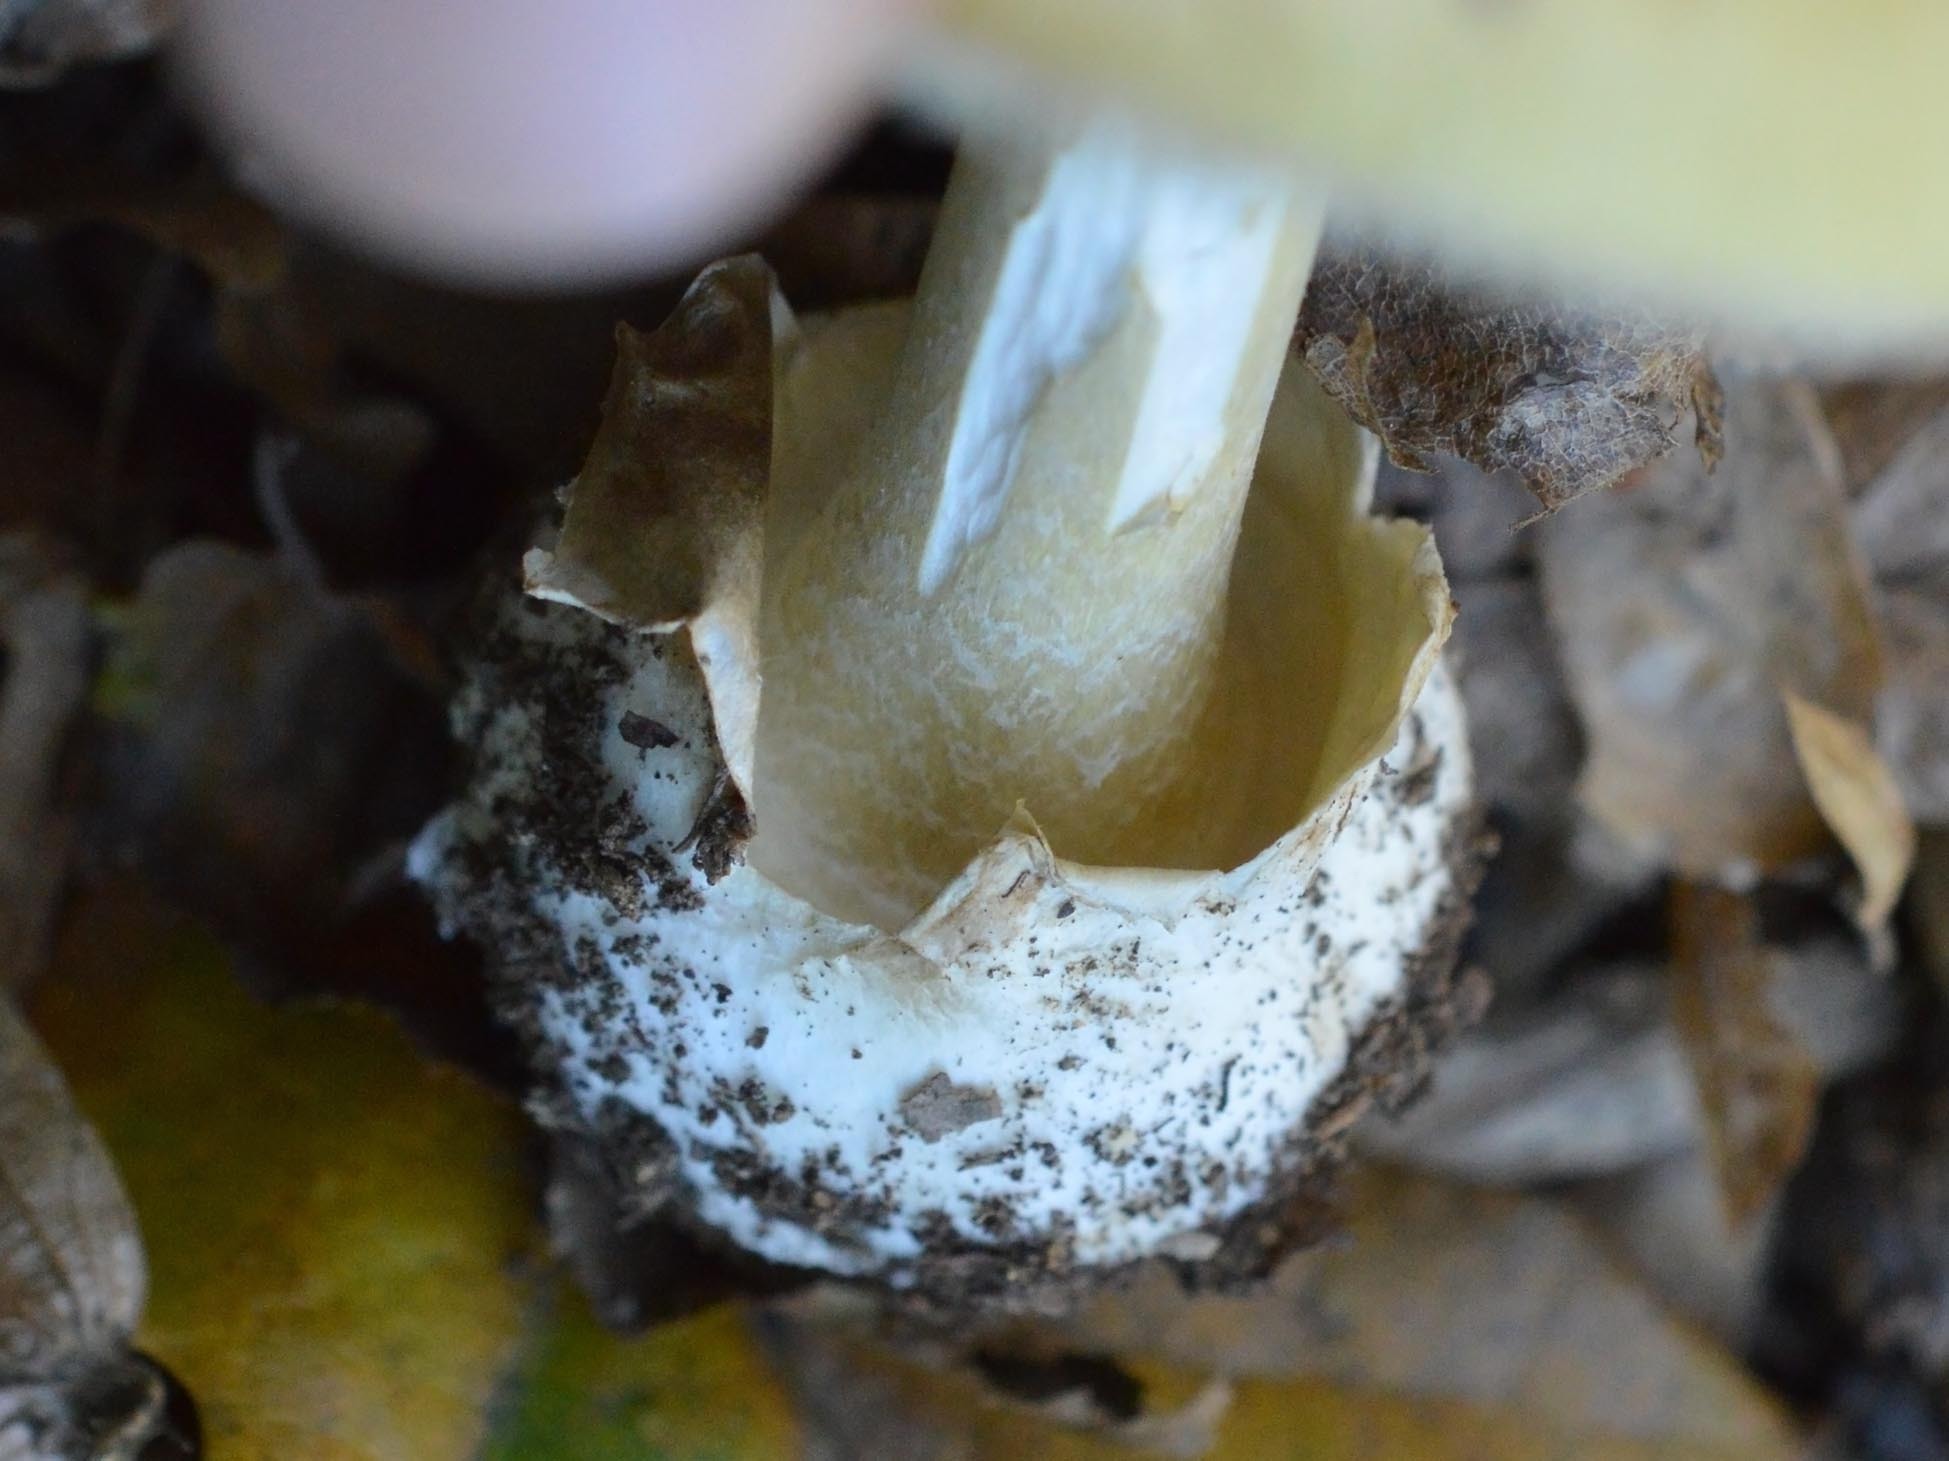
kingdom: Fungi
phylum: Basidiomycota
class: Agaricomycetes
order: Agaricales
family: Amanitaceae
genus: Amanita
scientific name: Amanita phalloides
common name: Death cap
